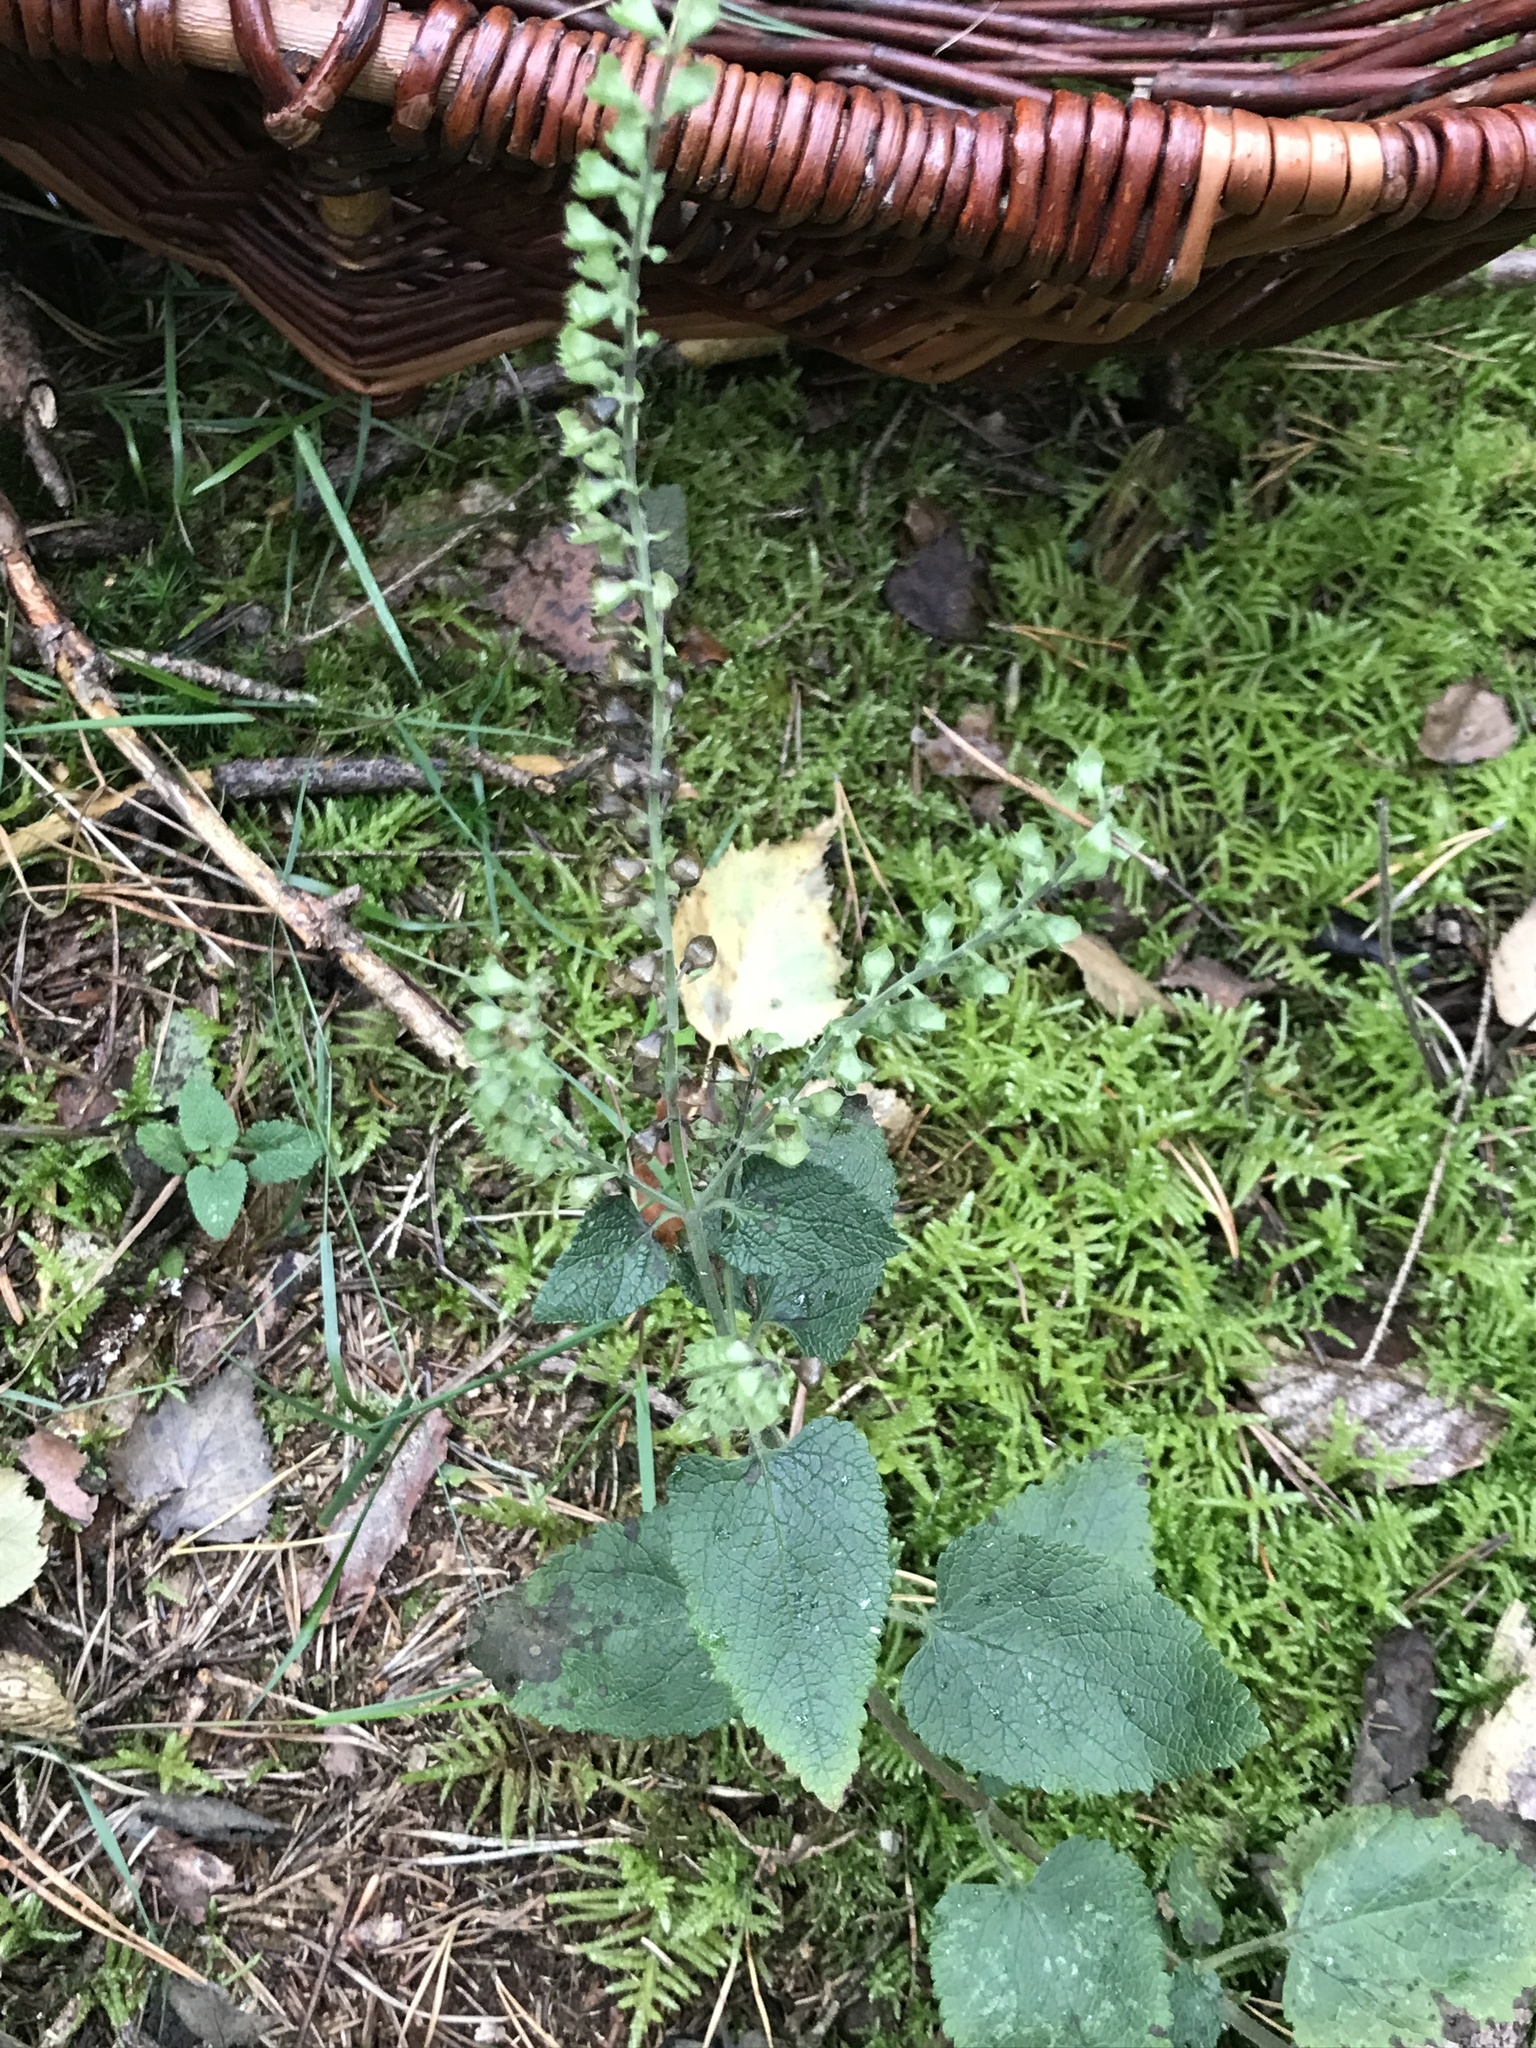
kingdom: Plantae
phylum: Tracheophyta
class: Magnoliopsida
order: Lamiales
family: Lamiaceae
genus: Teucrium
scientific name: Teucrium scorodonia
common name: Woodland germander
